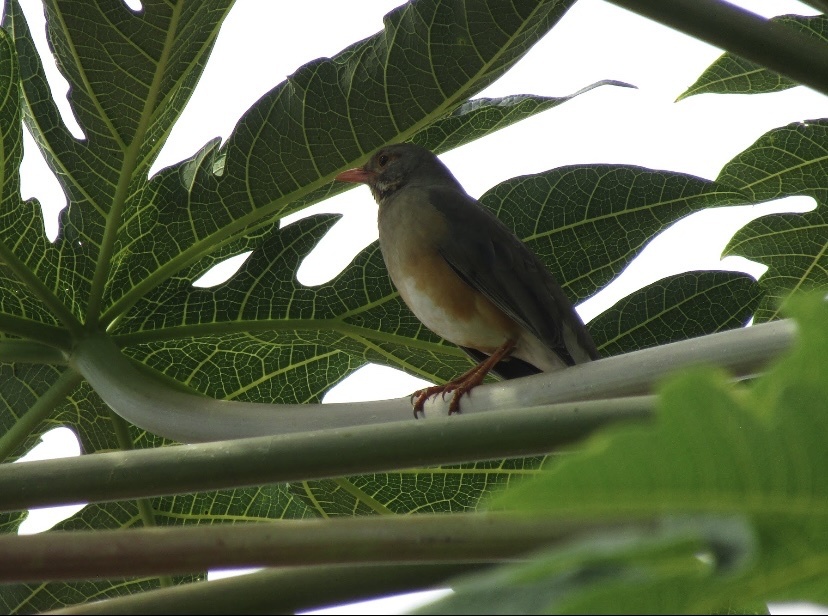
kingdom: Animalia
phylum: Chordata
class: Aves
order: Passeriformes
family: Turdidae
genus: Turdus
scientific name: Turdus libonyana
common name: Kurrichane thrush
